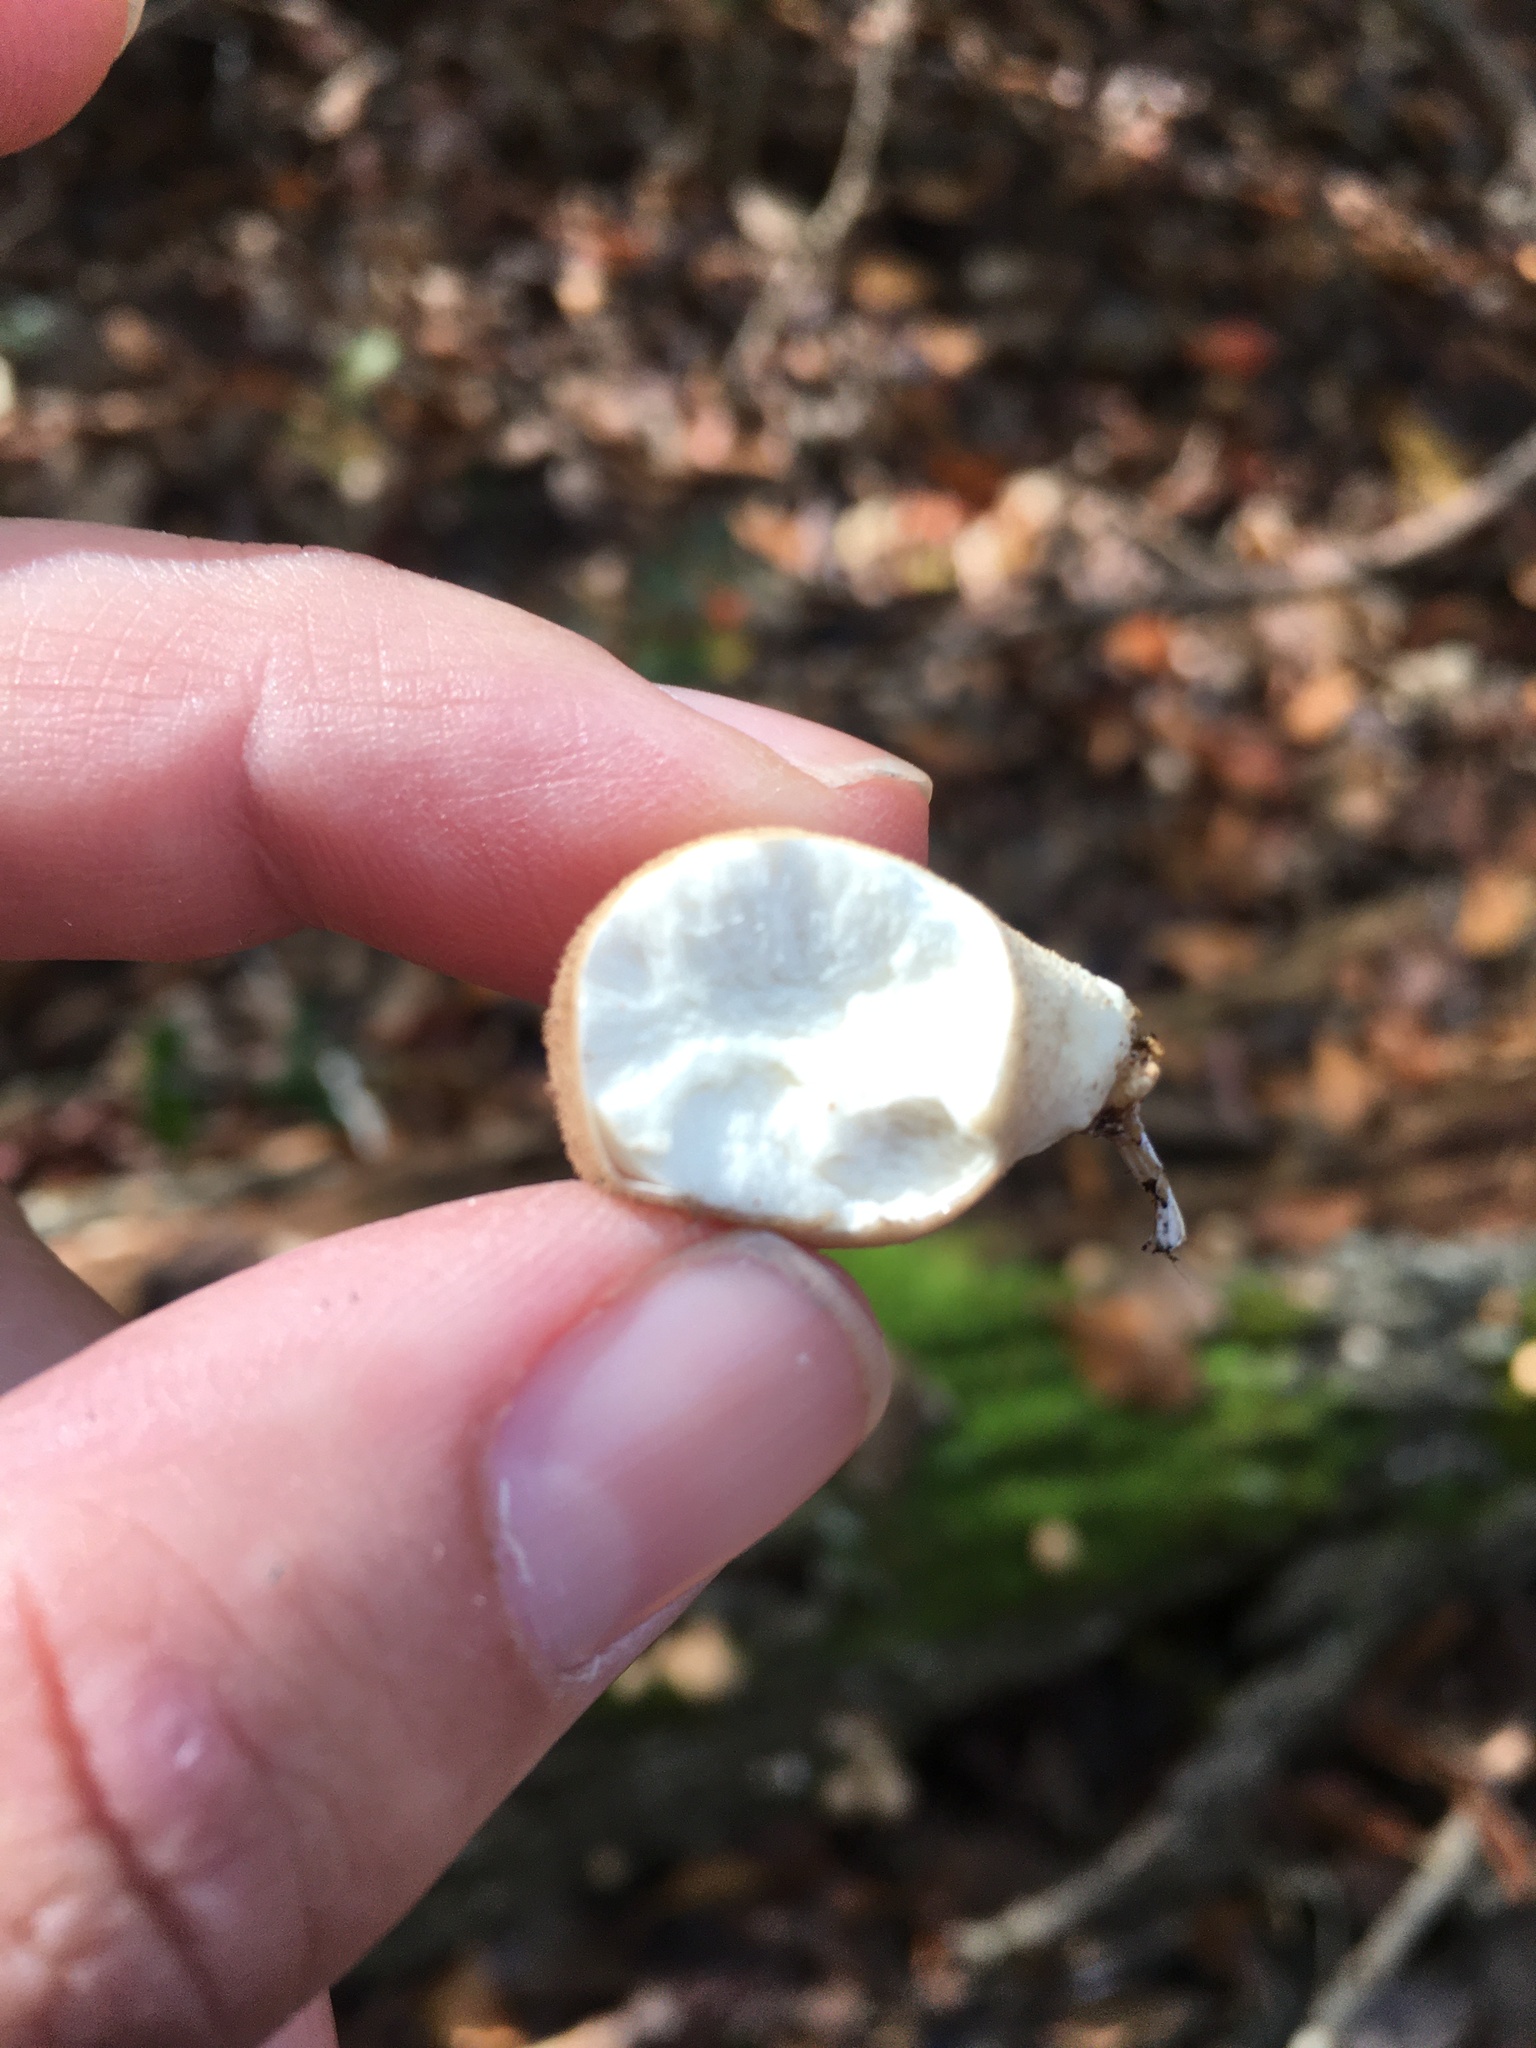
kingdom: Fungi
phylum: Basidiomycota
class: Agaricomycetes
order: Agaricales
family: Lycoperdaceae
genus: Apioperdon
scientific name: Apioperdon pyriforme
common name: Pear-shaped puffball
